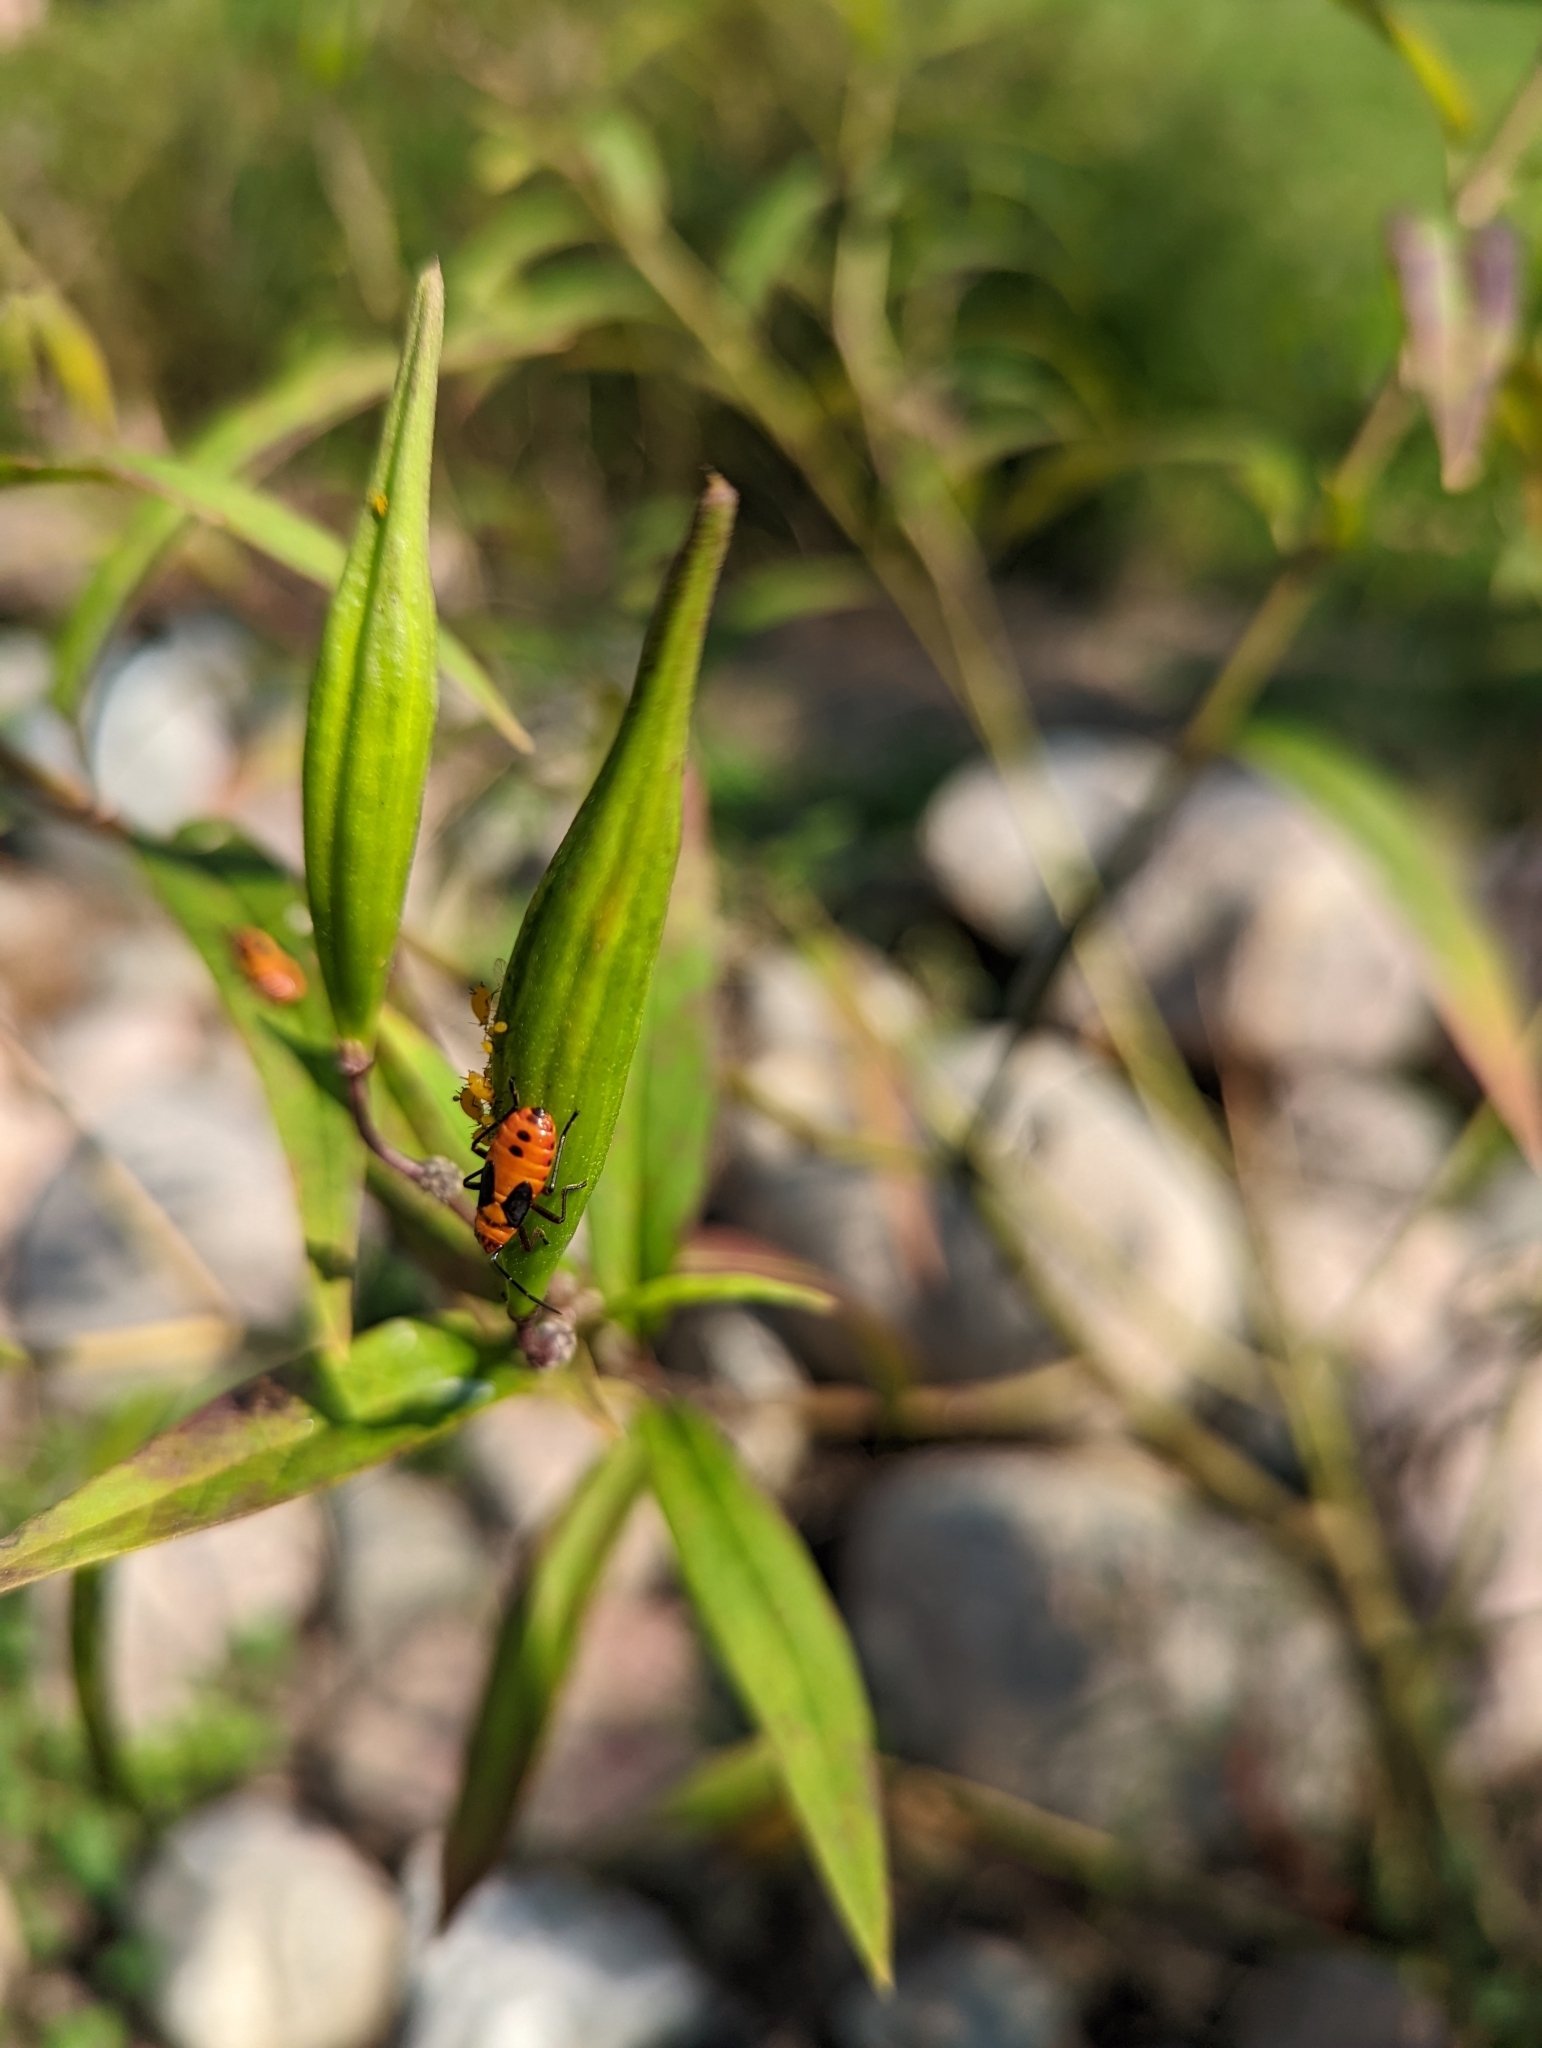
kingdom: Animalia
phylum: Arthropoda
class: Insecta
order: Hemiptera
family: Lygaeidae
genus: Oncopeltus
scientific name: Oncopeltus fasciatus
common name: Large milkweed bug
